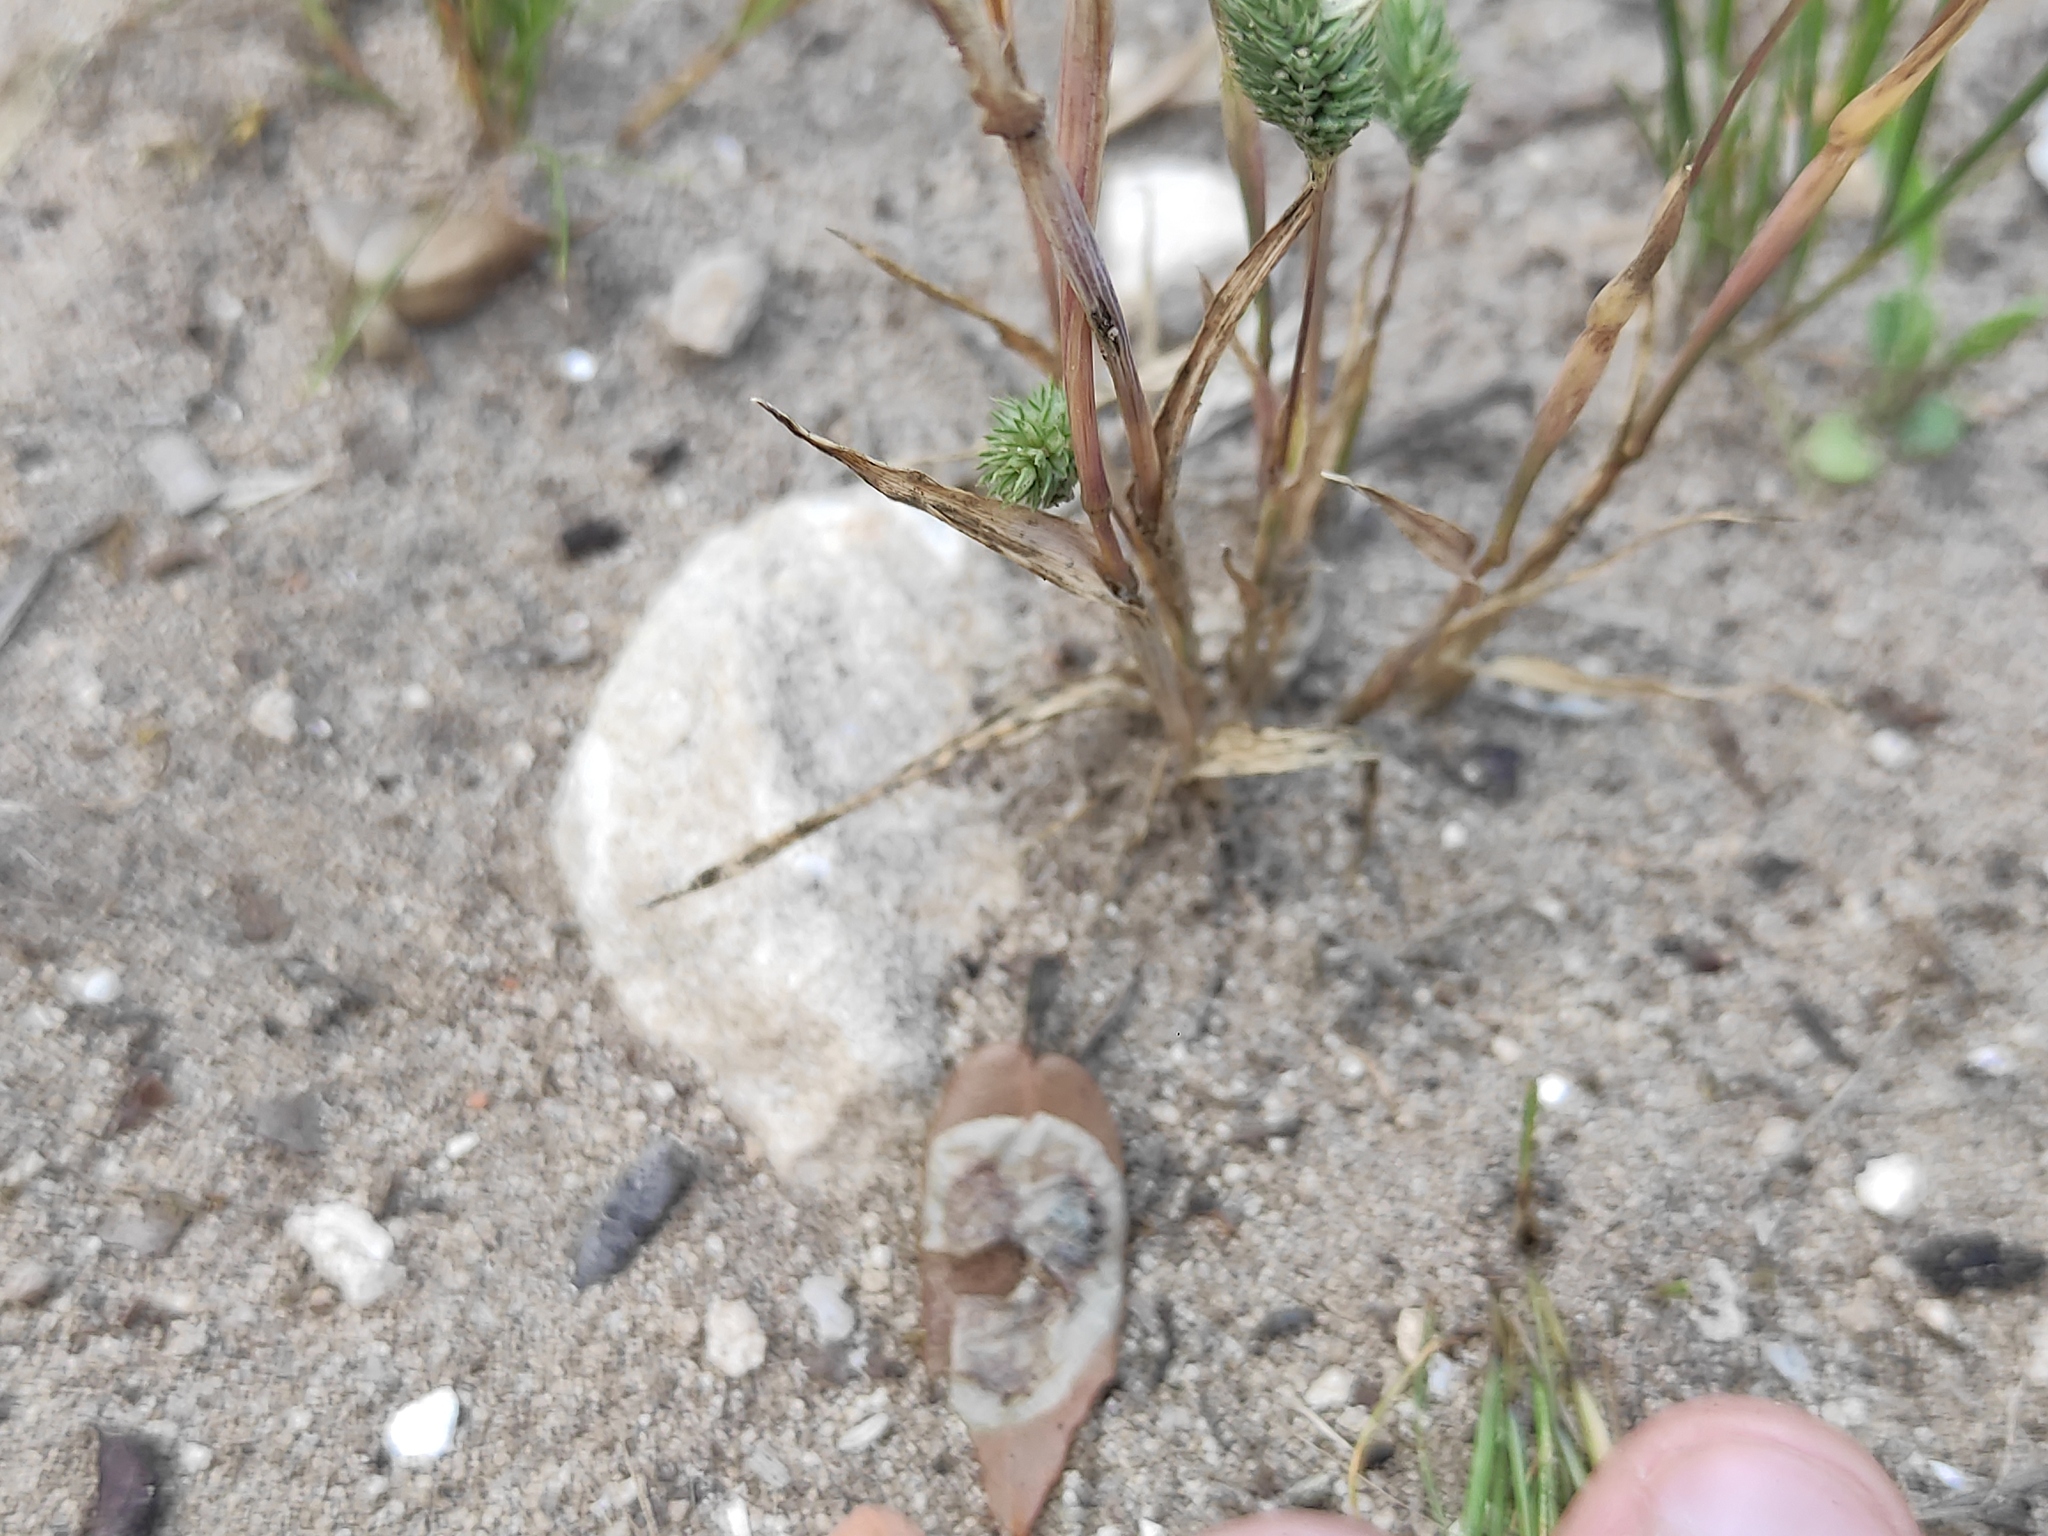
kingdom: Plantae
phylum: Tracheophyta
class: Liliopsida
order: Poales
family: Poaceae
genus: Phleum
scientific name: Phleum arenarium
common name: Sand cat's-tail
